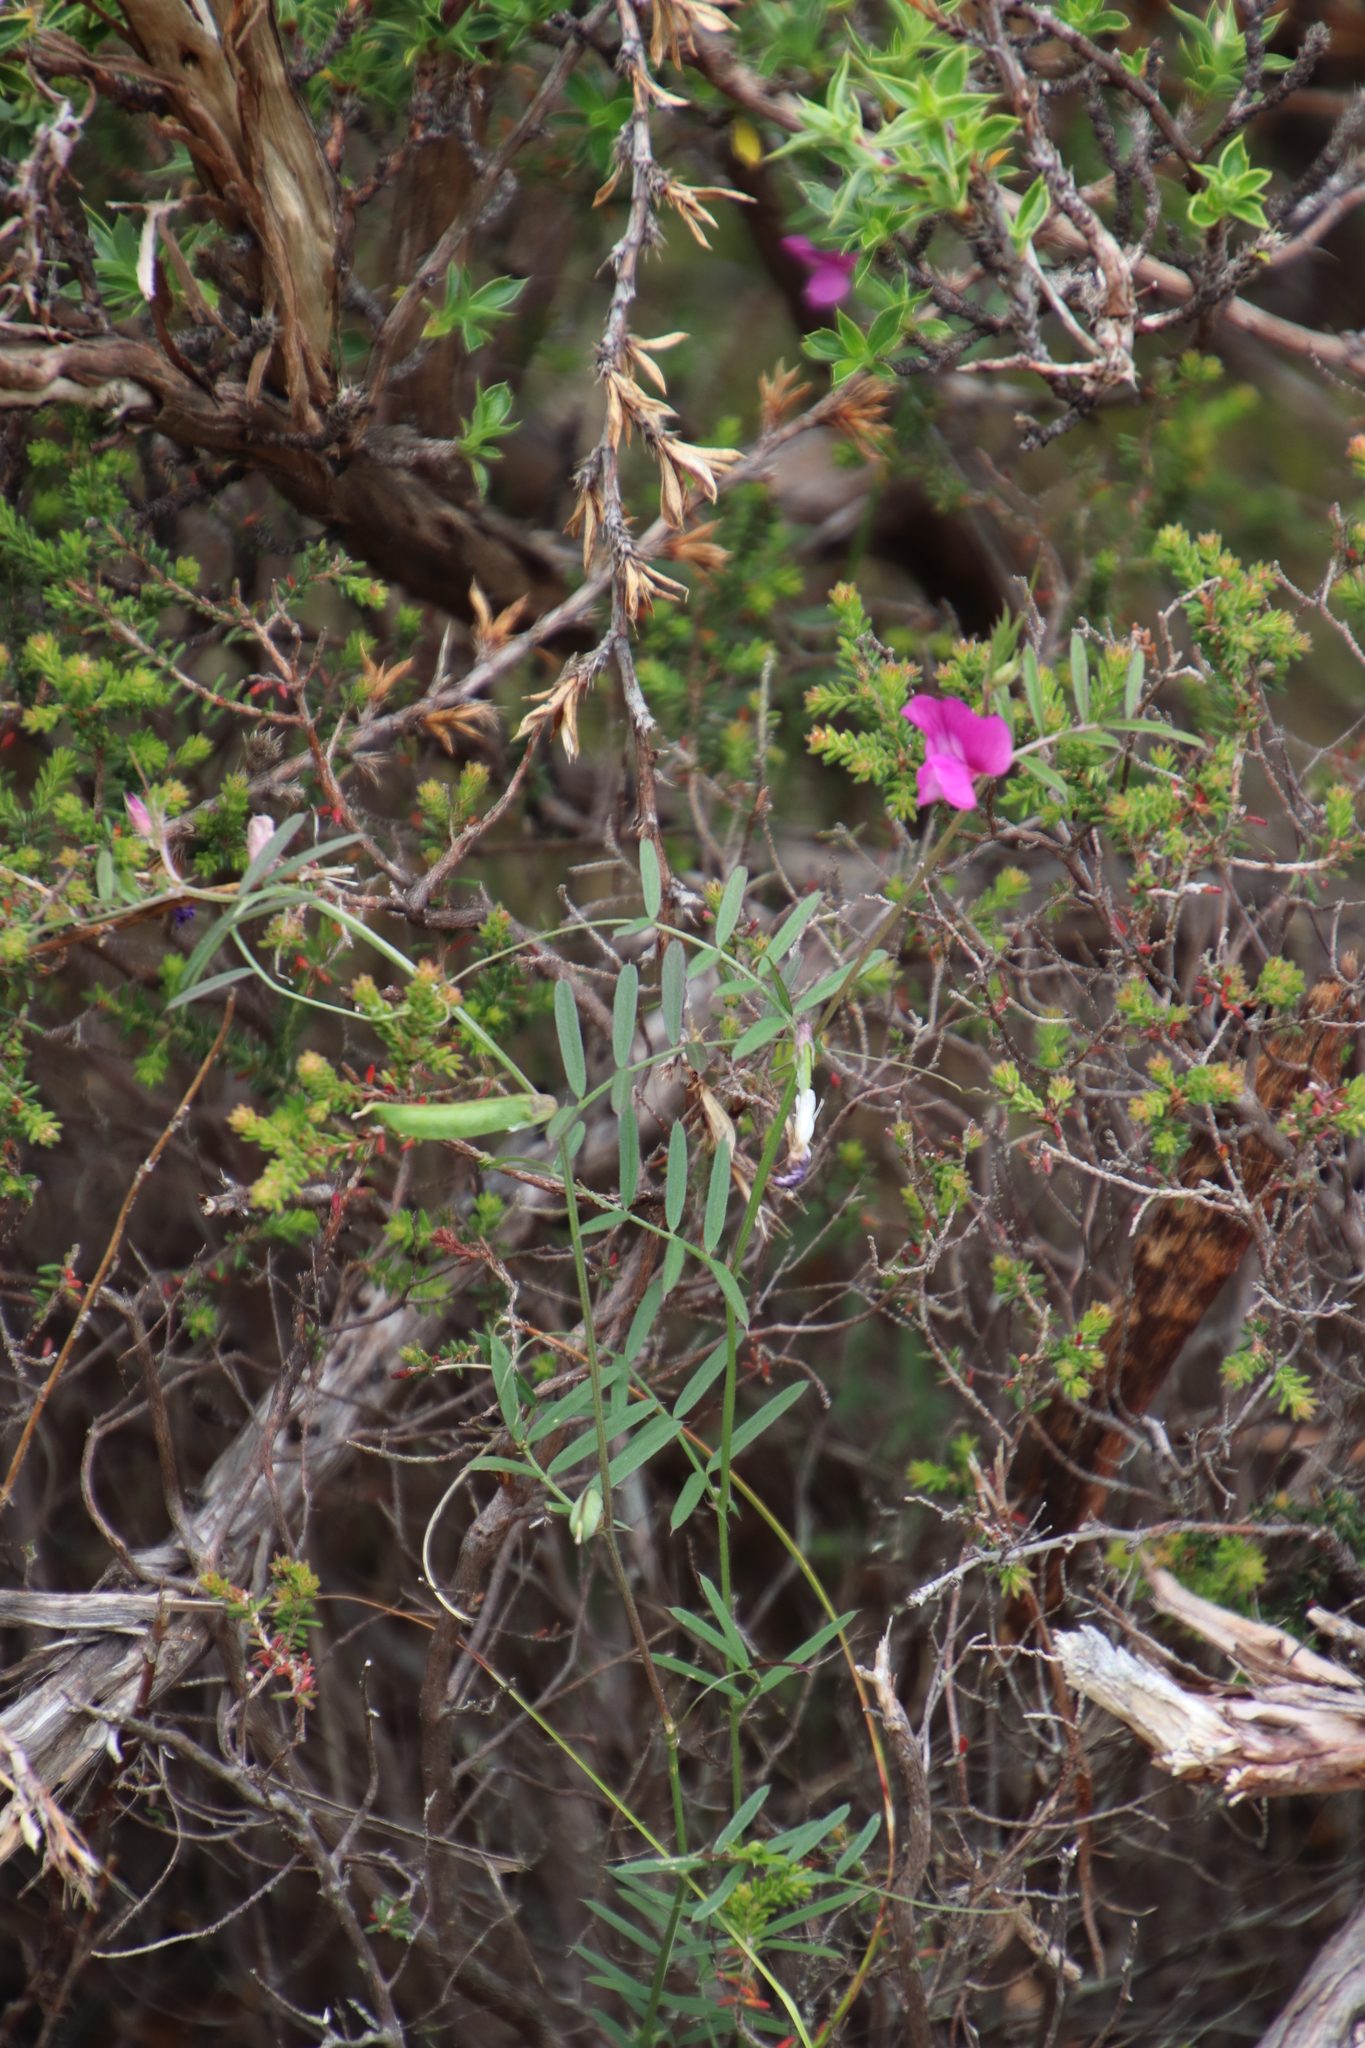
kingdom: Plantae
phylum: Tracheophyta
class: Magnoliopsida
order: Fabales
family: Fabaceae
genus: Vicia
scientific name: Vicia sativa
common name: Garden vetch
